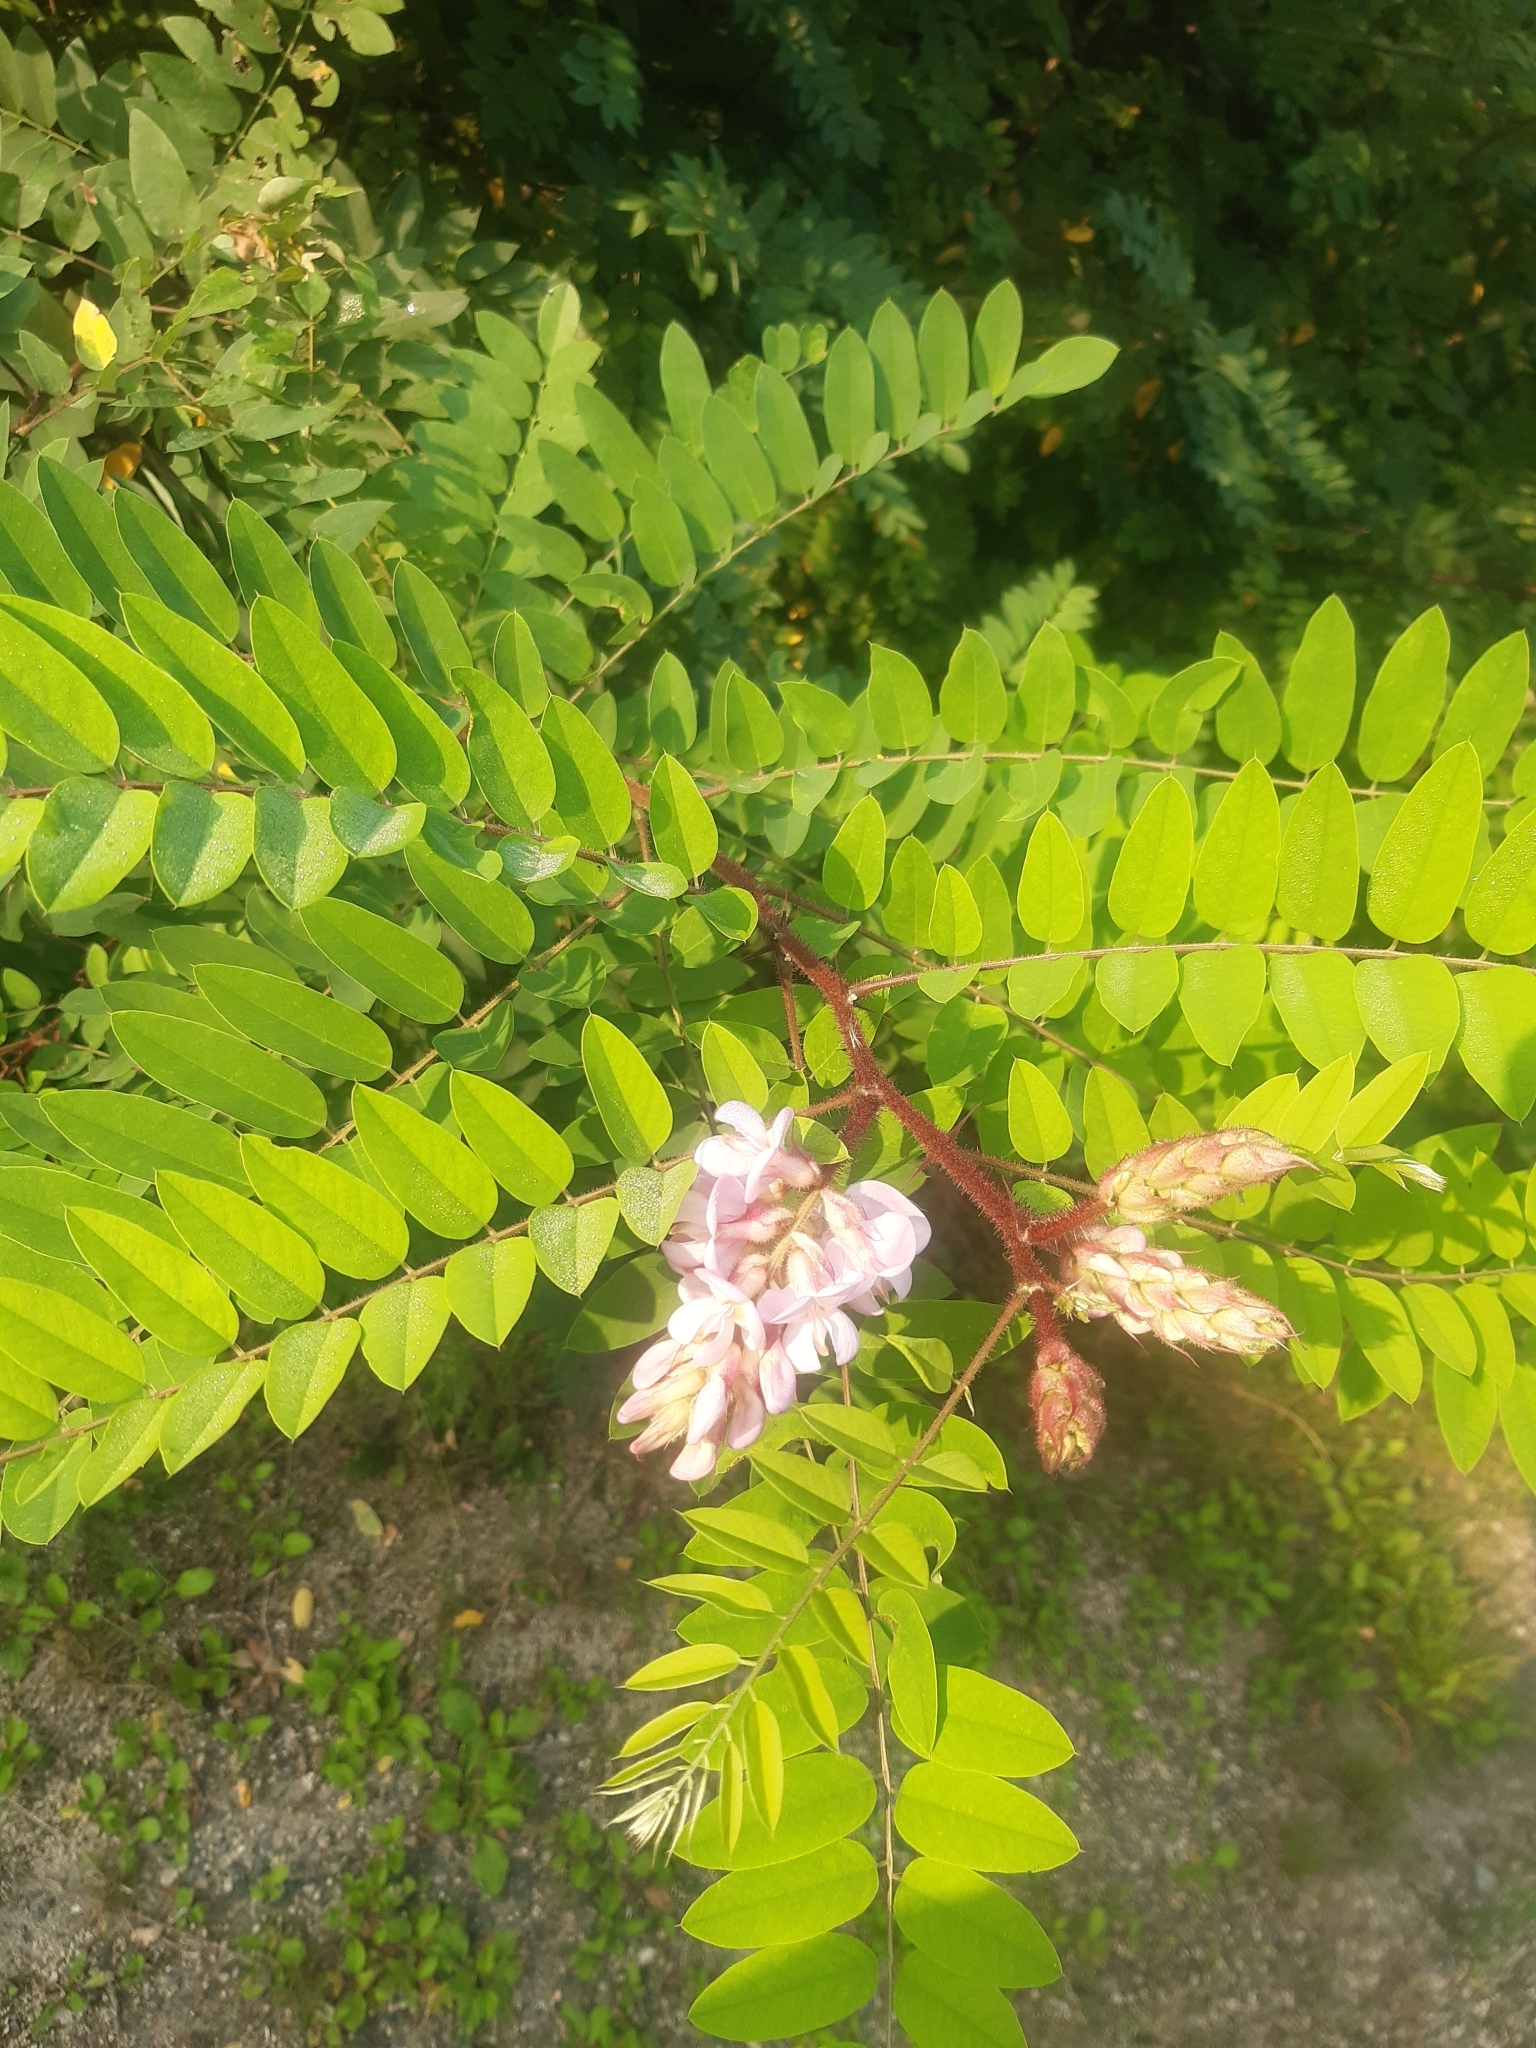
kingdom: Plantae
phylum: Tracheophyta
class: Magnoliopsida
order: Fabales
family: Fabaceae
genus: Robinia
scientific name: Robinia viscosa
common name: Clammy locust
